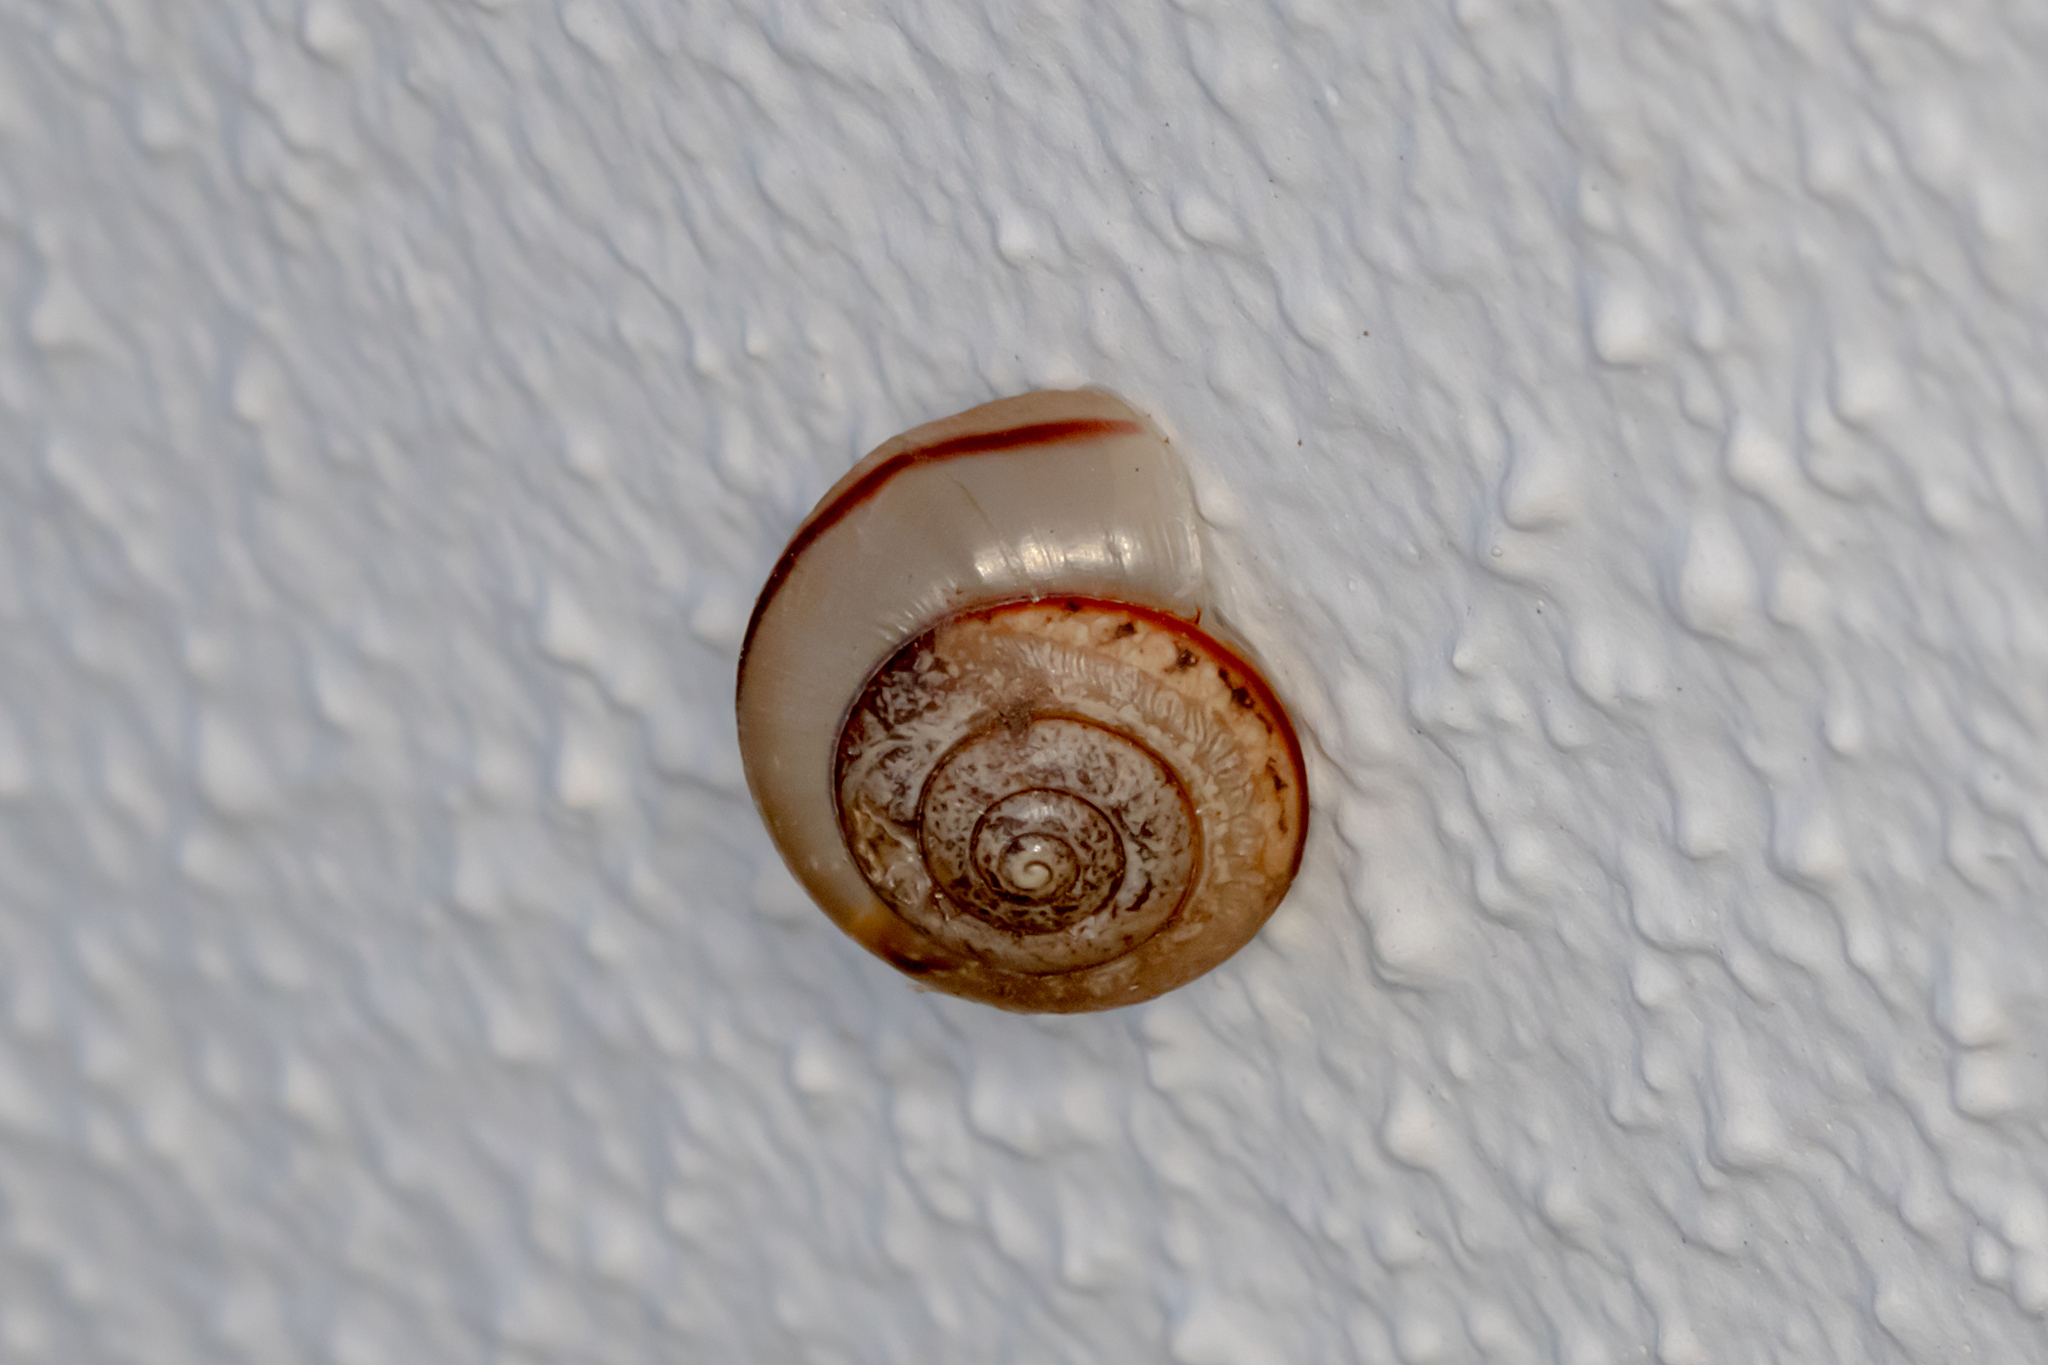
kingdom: Animalia
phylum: Mollusca
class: Gastropoda
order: Stylommatophora
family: Camaenidae
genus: Bradybaena
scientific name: Bradybaena similaris
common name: Asian trampsnail
